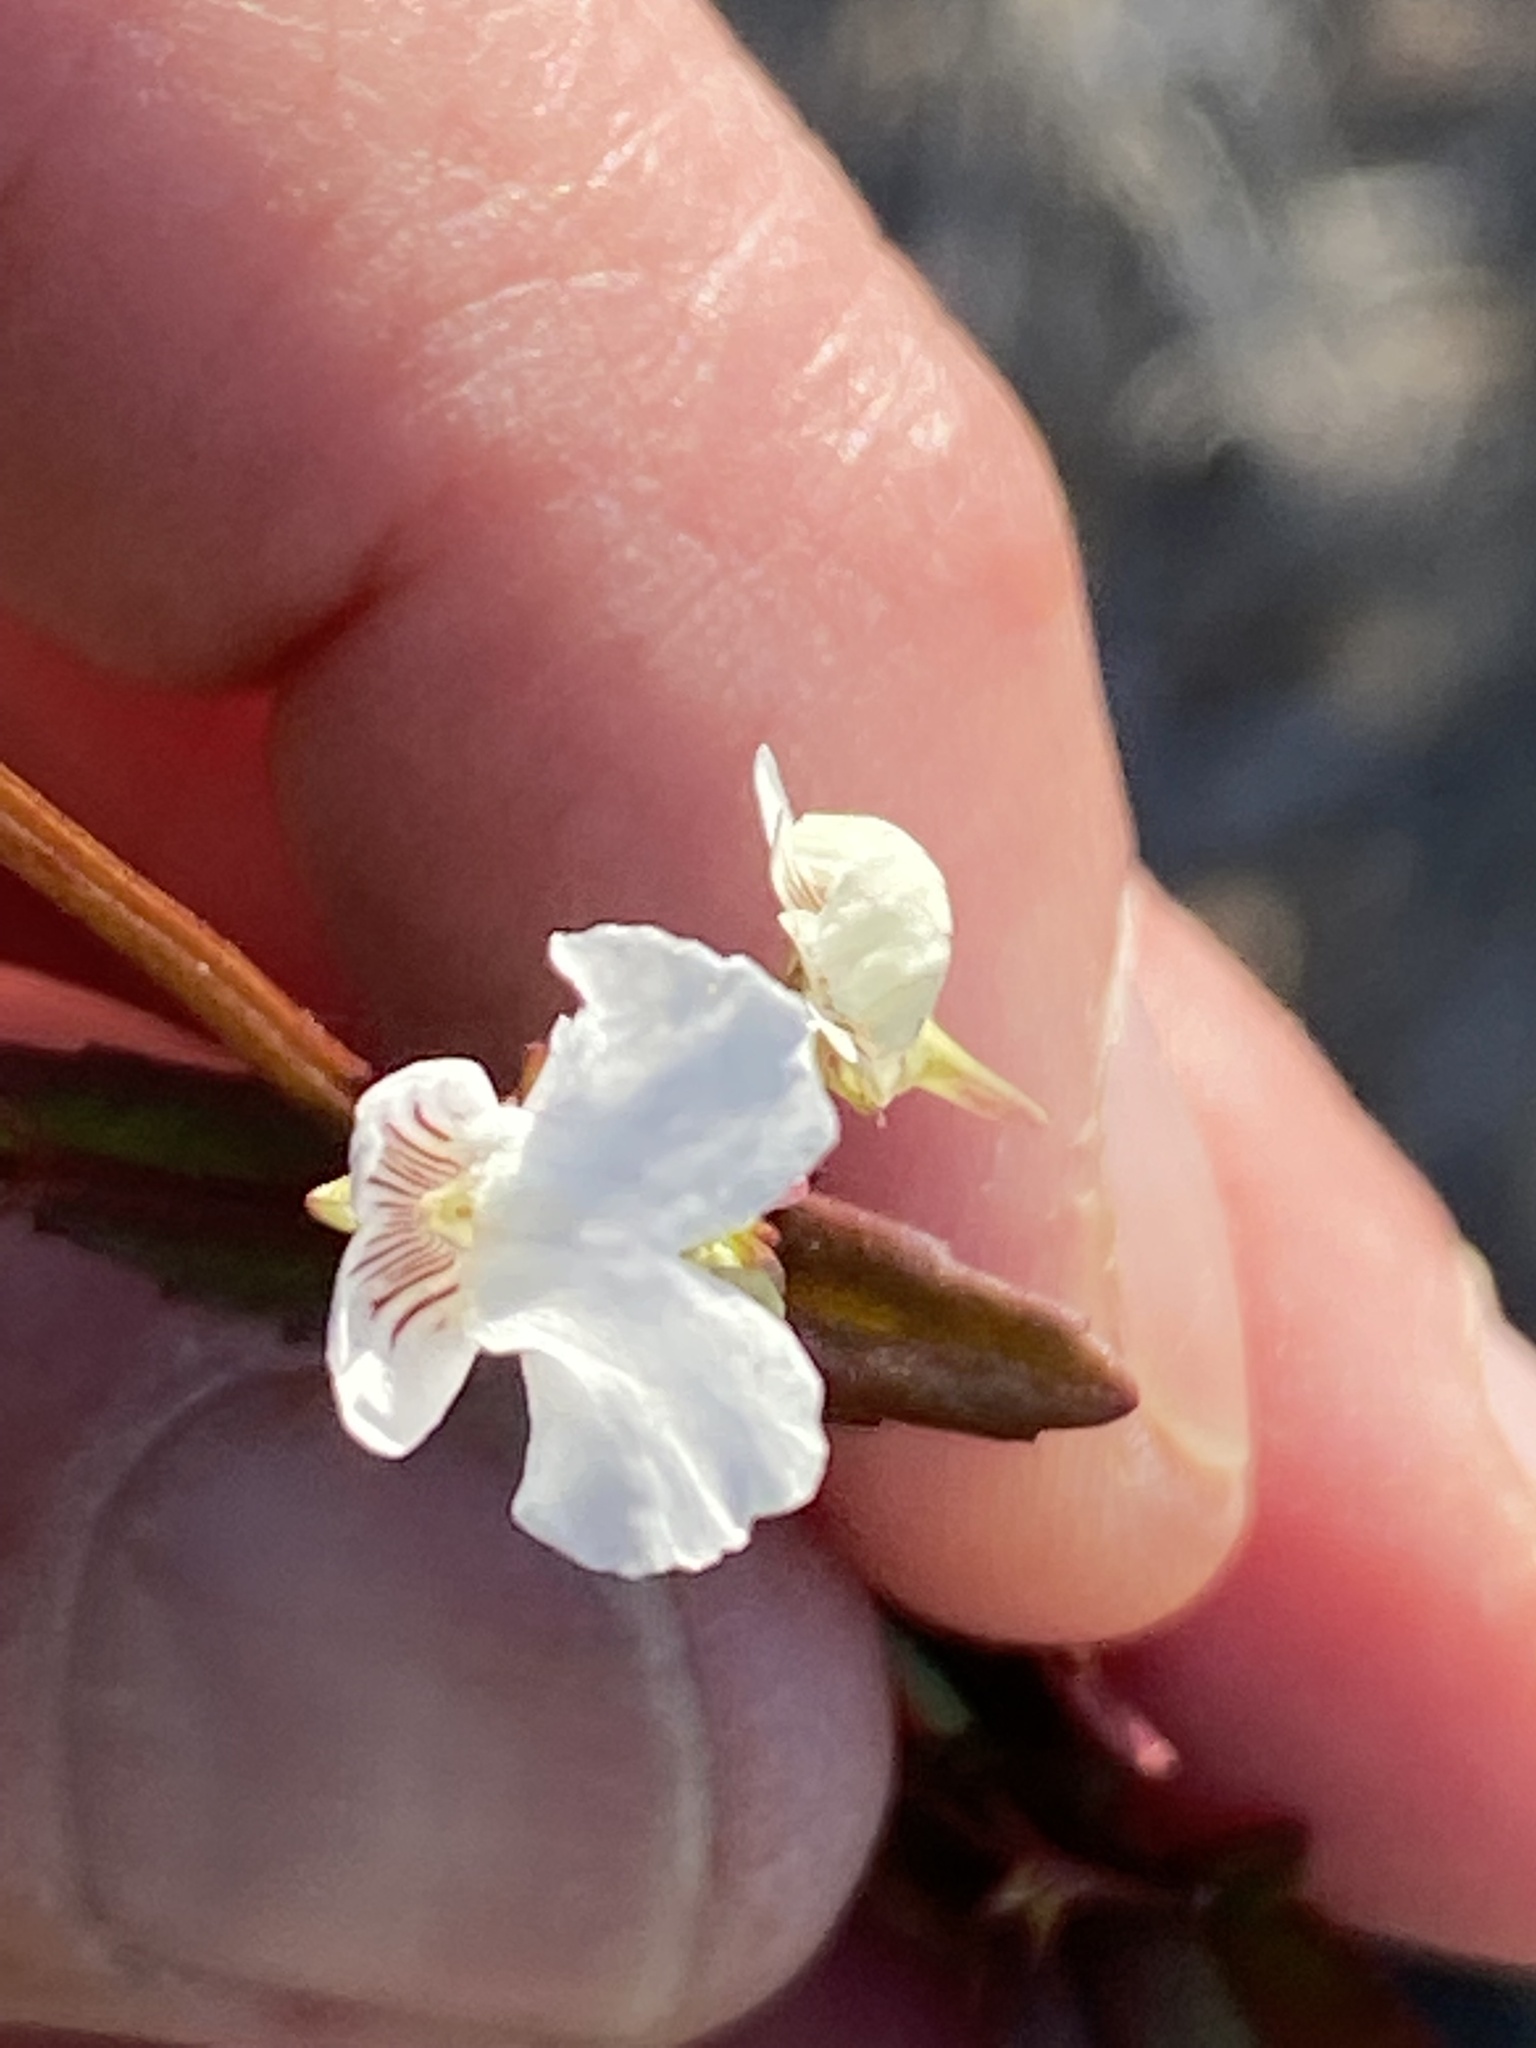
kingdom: Plantae
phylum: Tracheophyta
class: Magnoliopsida
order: Lamiales
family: Scrophulariaceae
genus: Nemesia
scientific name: Nemesia bicornis
